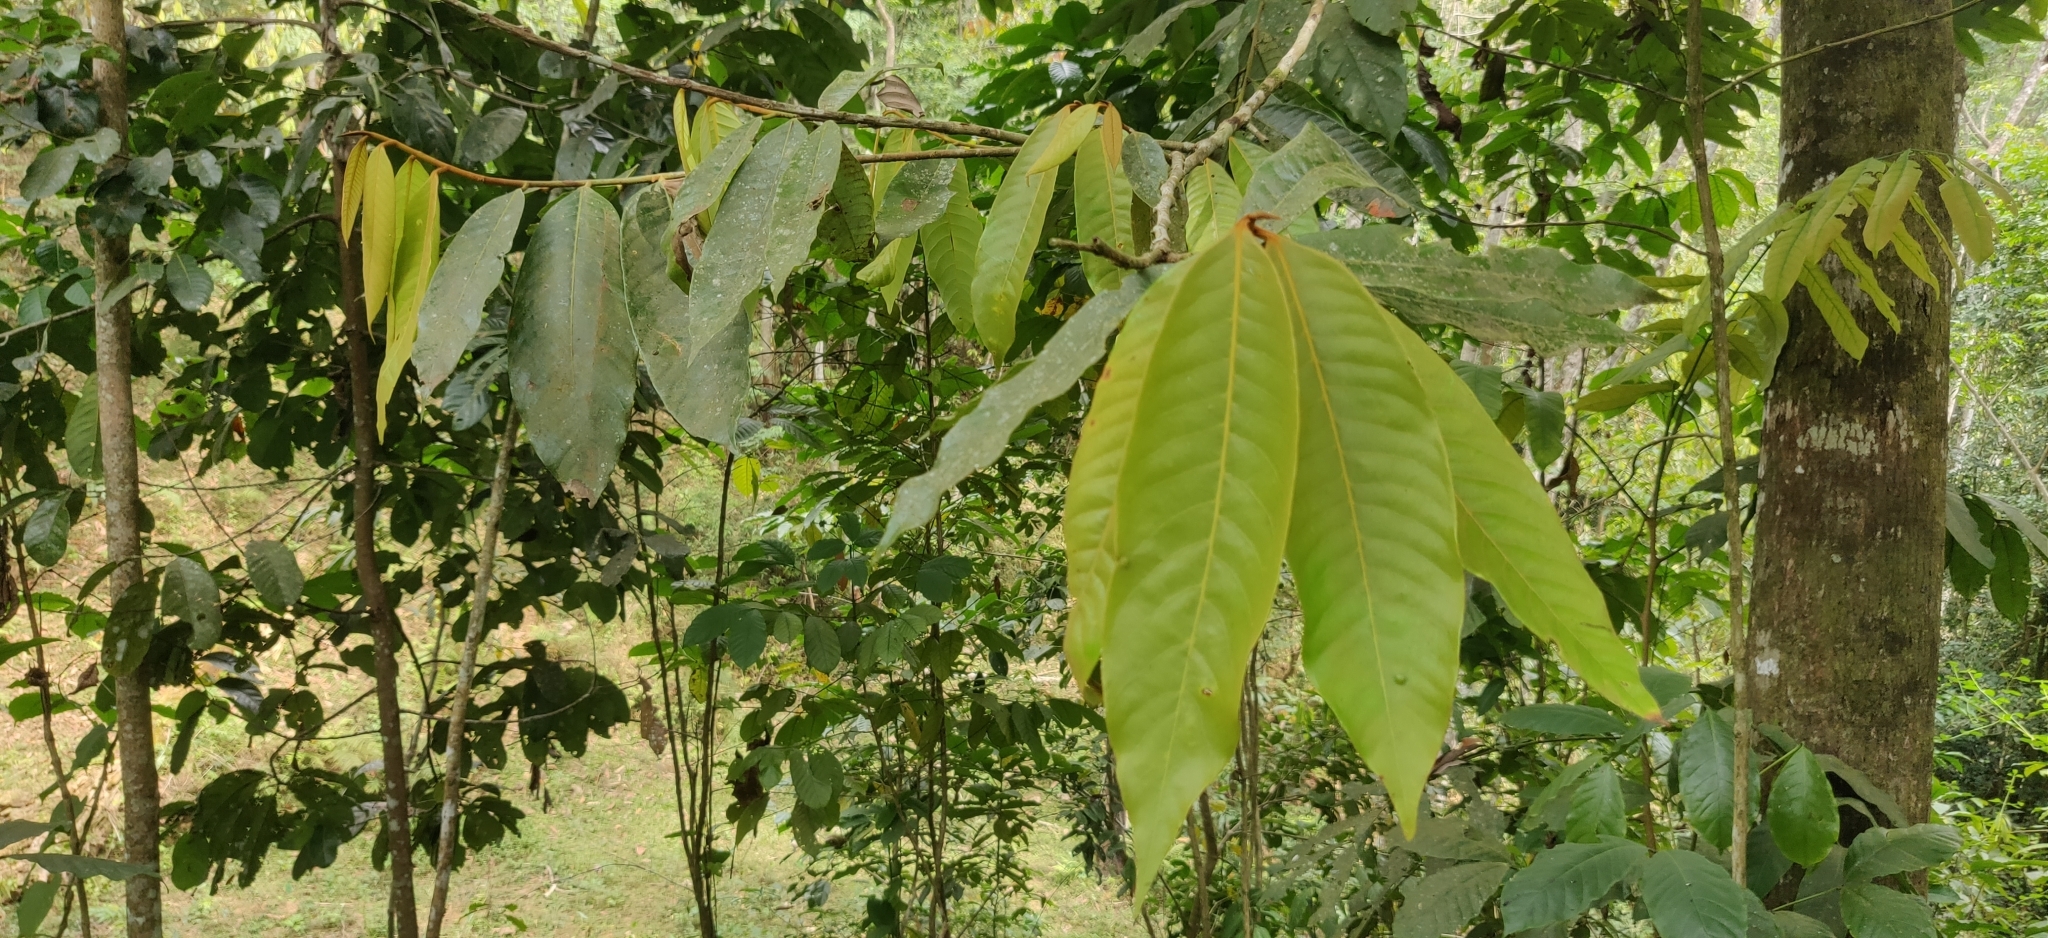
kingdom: Plantae
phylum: Tracheophyta
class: Magnoliopsida
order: Magnoliales
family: Myristicaceae
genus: Knema
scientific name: Knema attenuata
